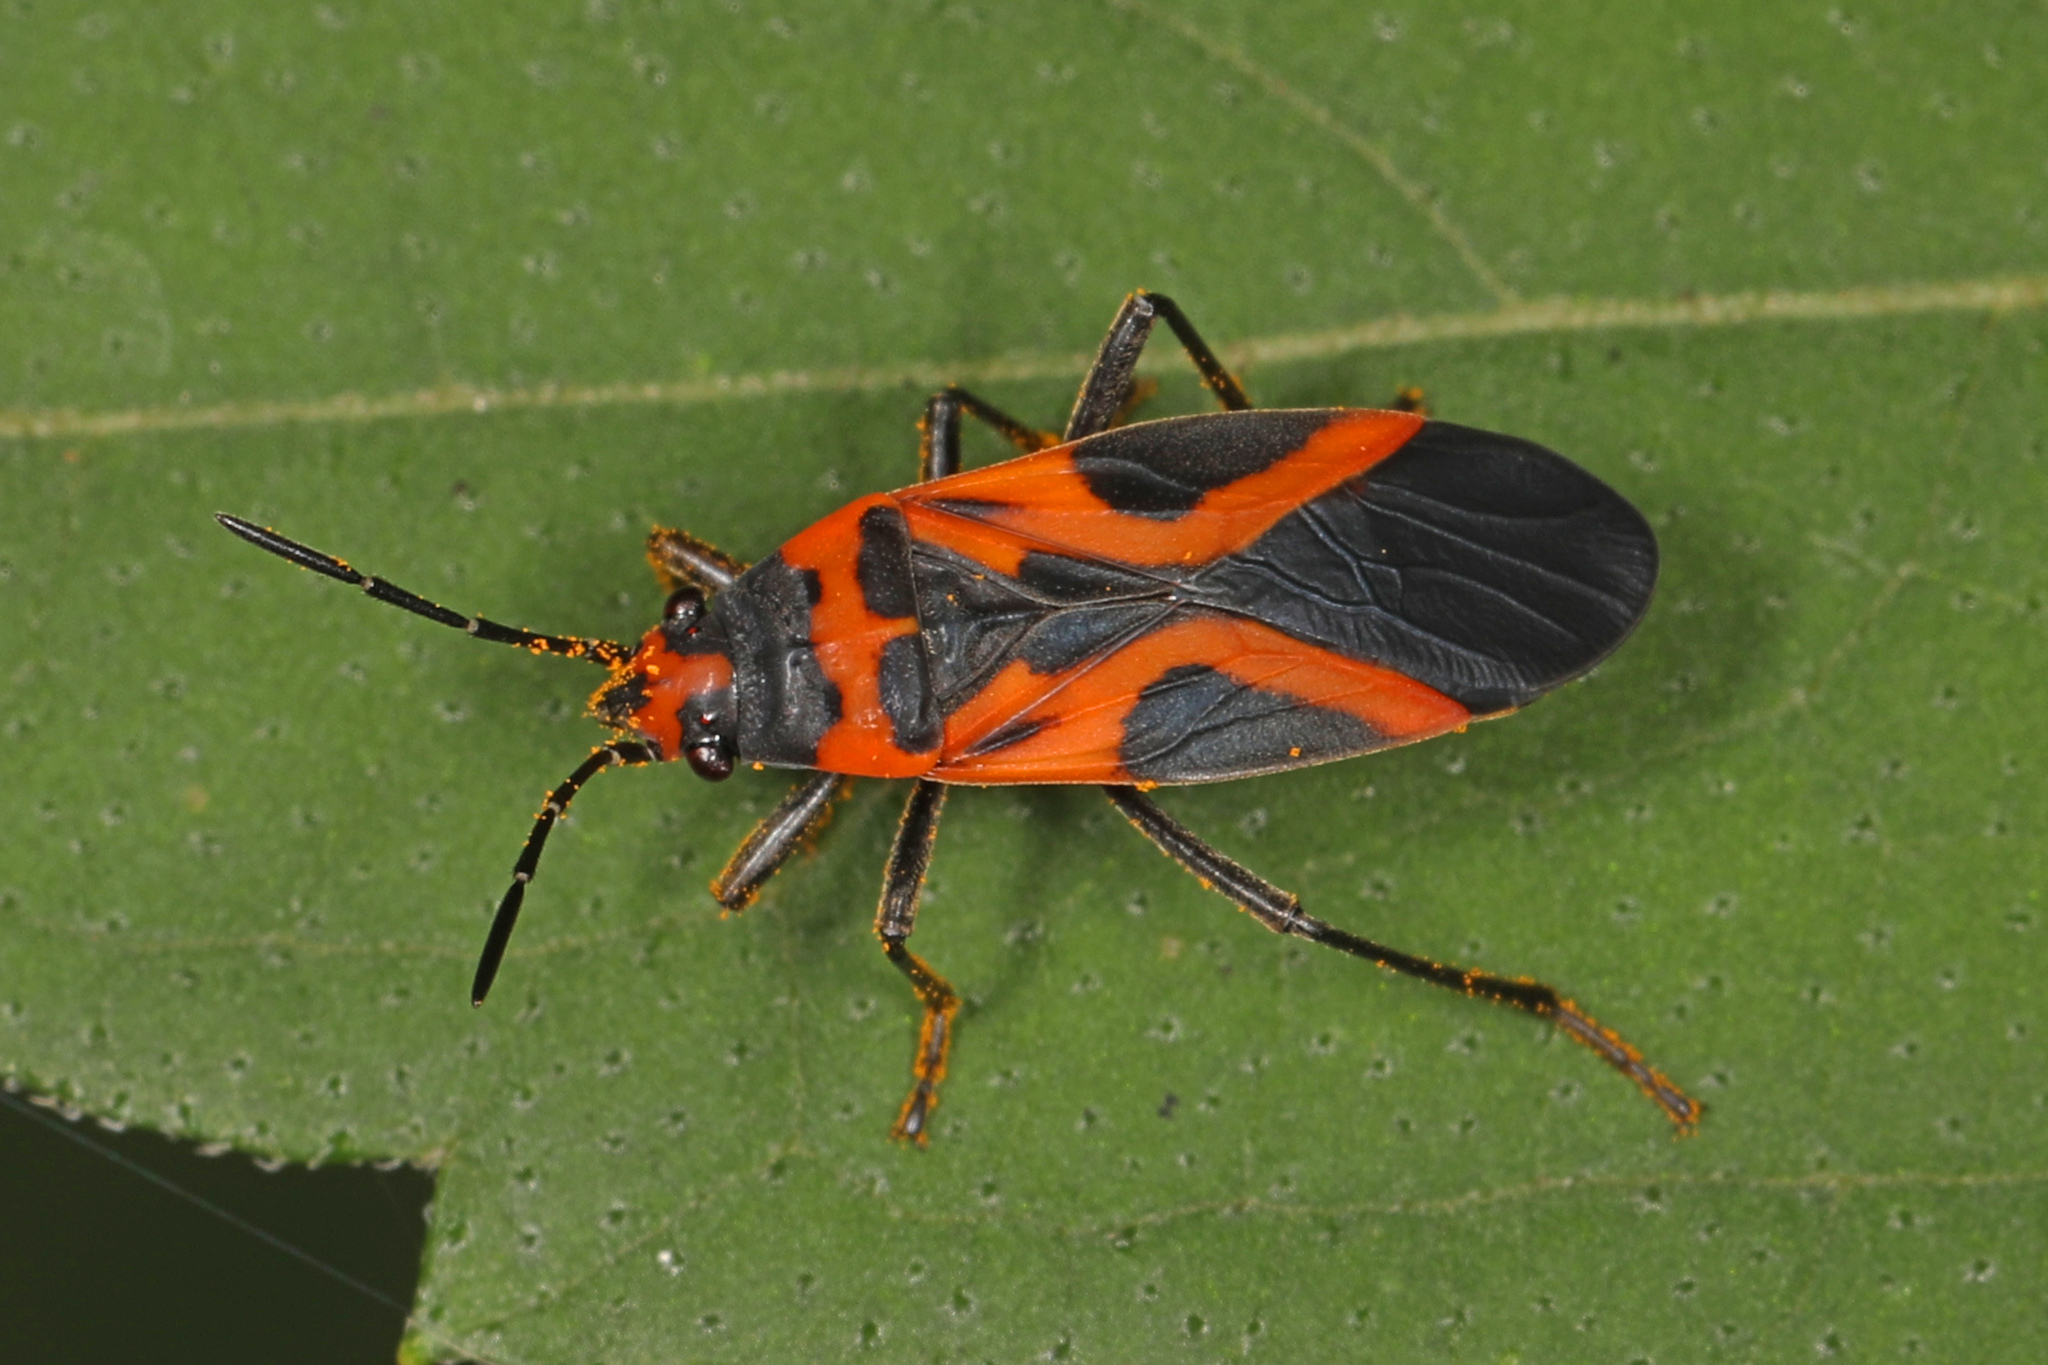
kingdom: Animalia
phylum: Arthropoda
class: Insecta
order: Hemiptera
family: Lygaeidae
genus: Lygaeus
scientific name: Lygaeus turcicus
